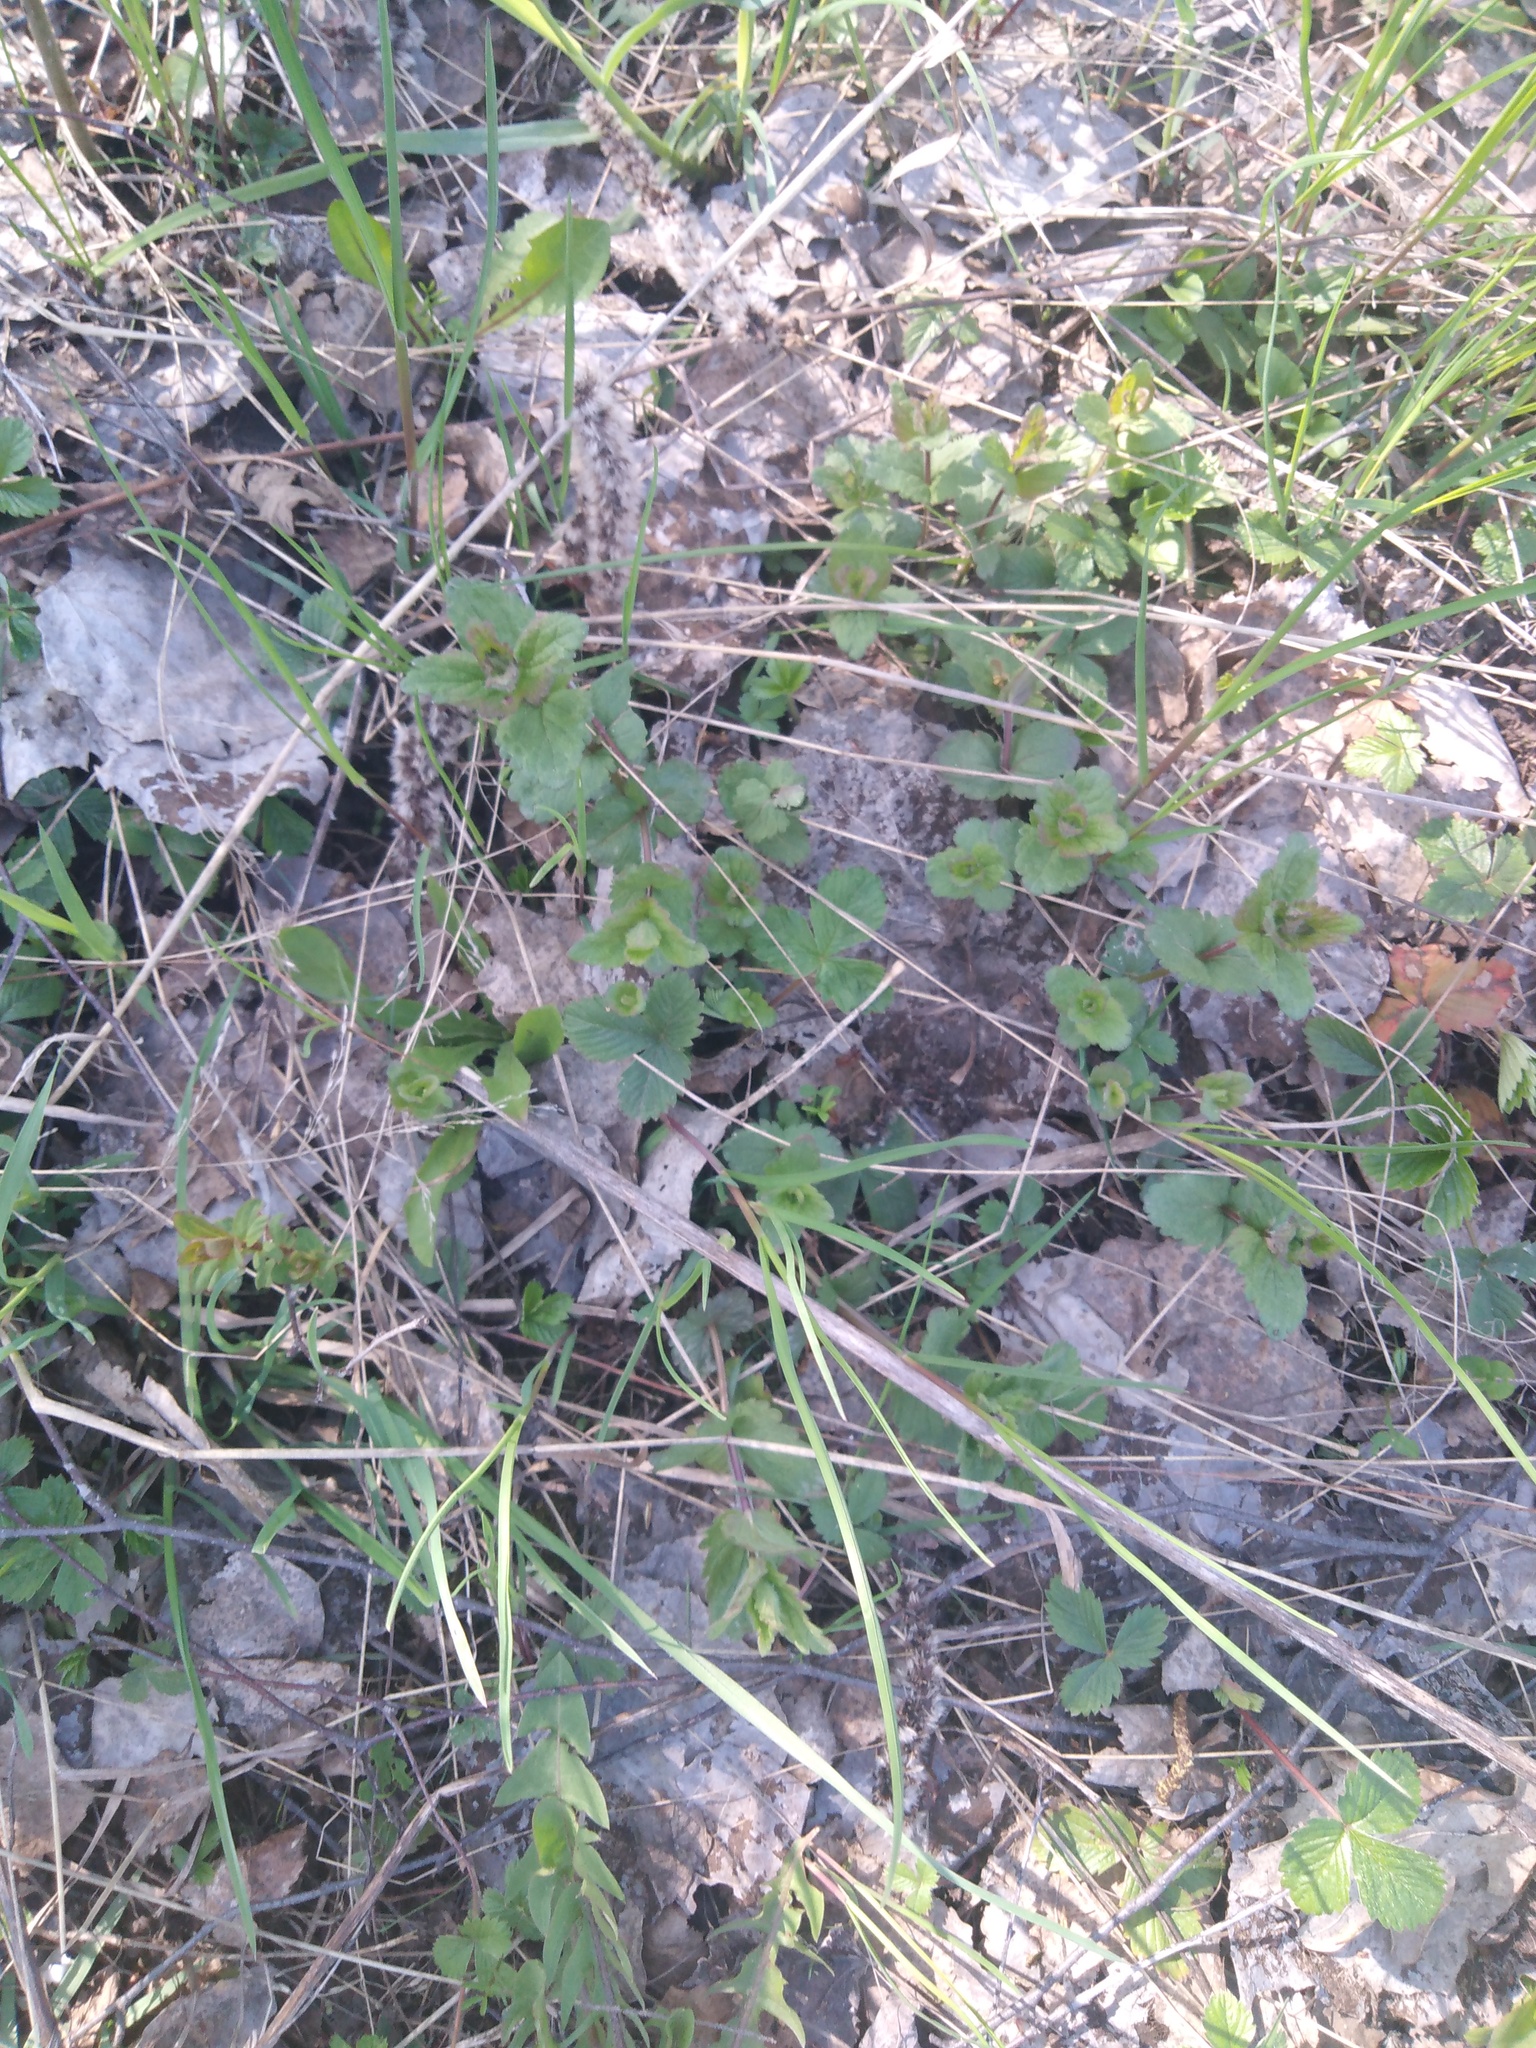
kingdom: Plantae
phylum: Tracheophyta
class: Magnoliopsida
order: Lamiales
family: Plantaginaceae
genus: Veronica
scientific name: Veronica chamaedrys
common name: Germander speedwell
